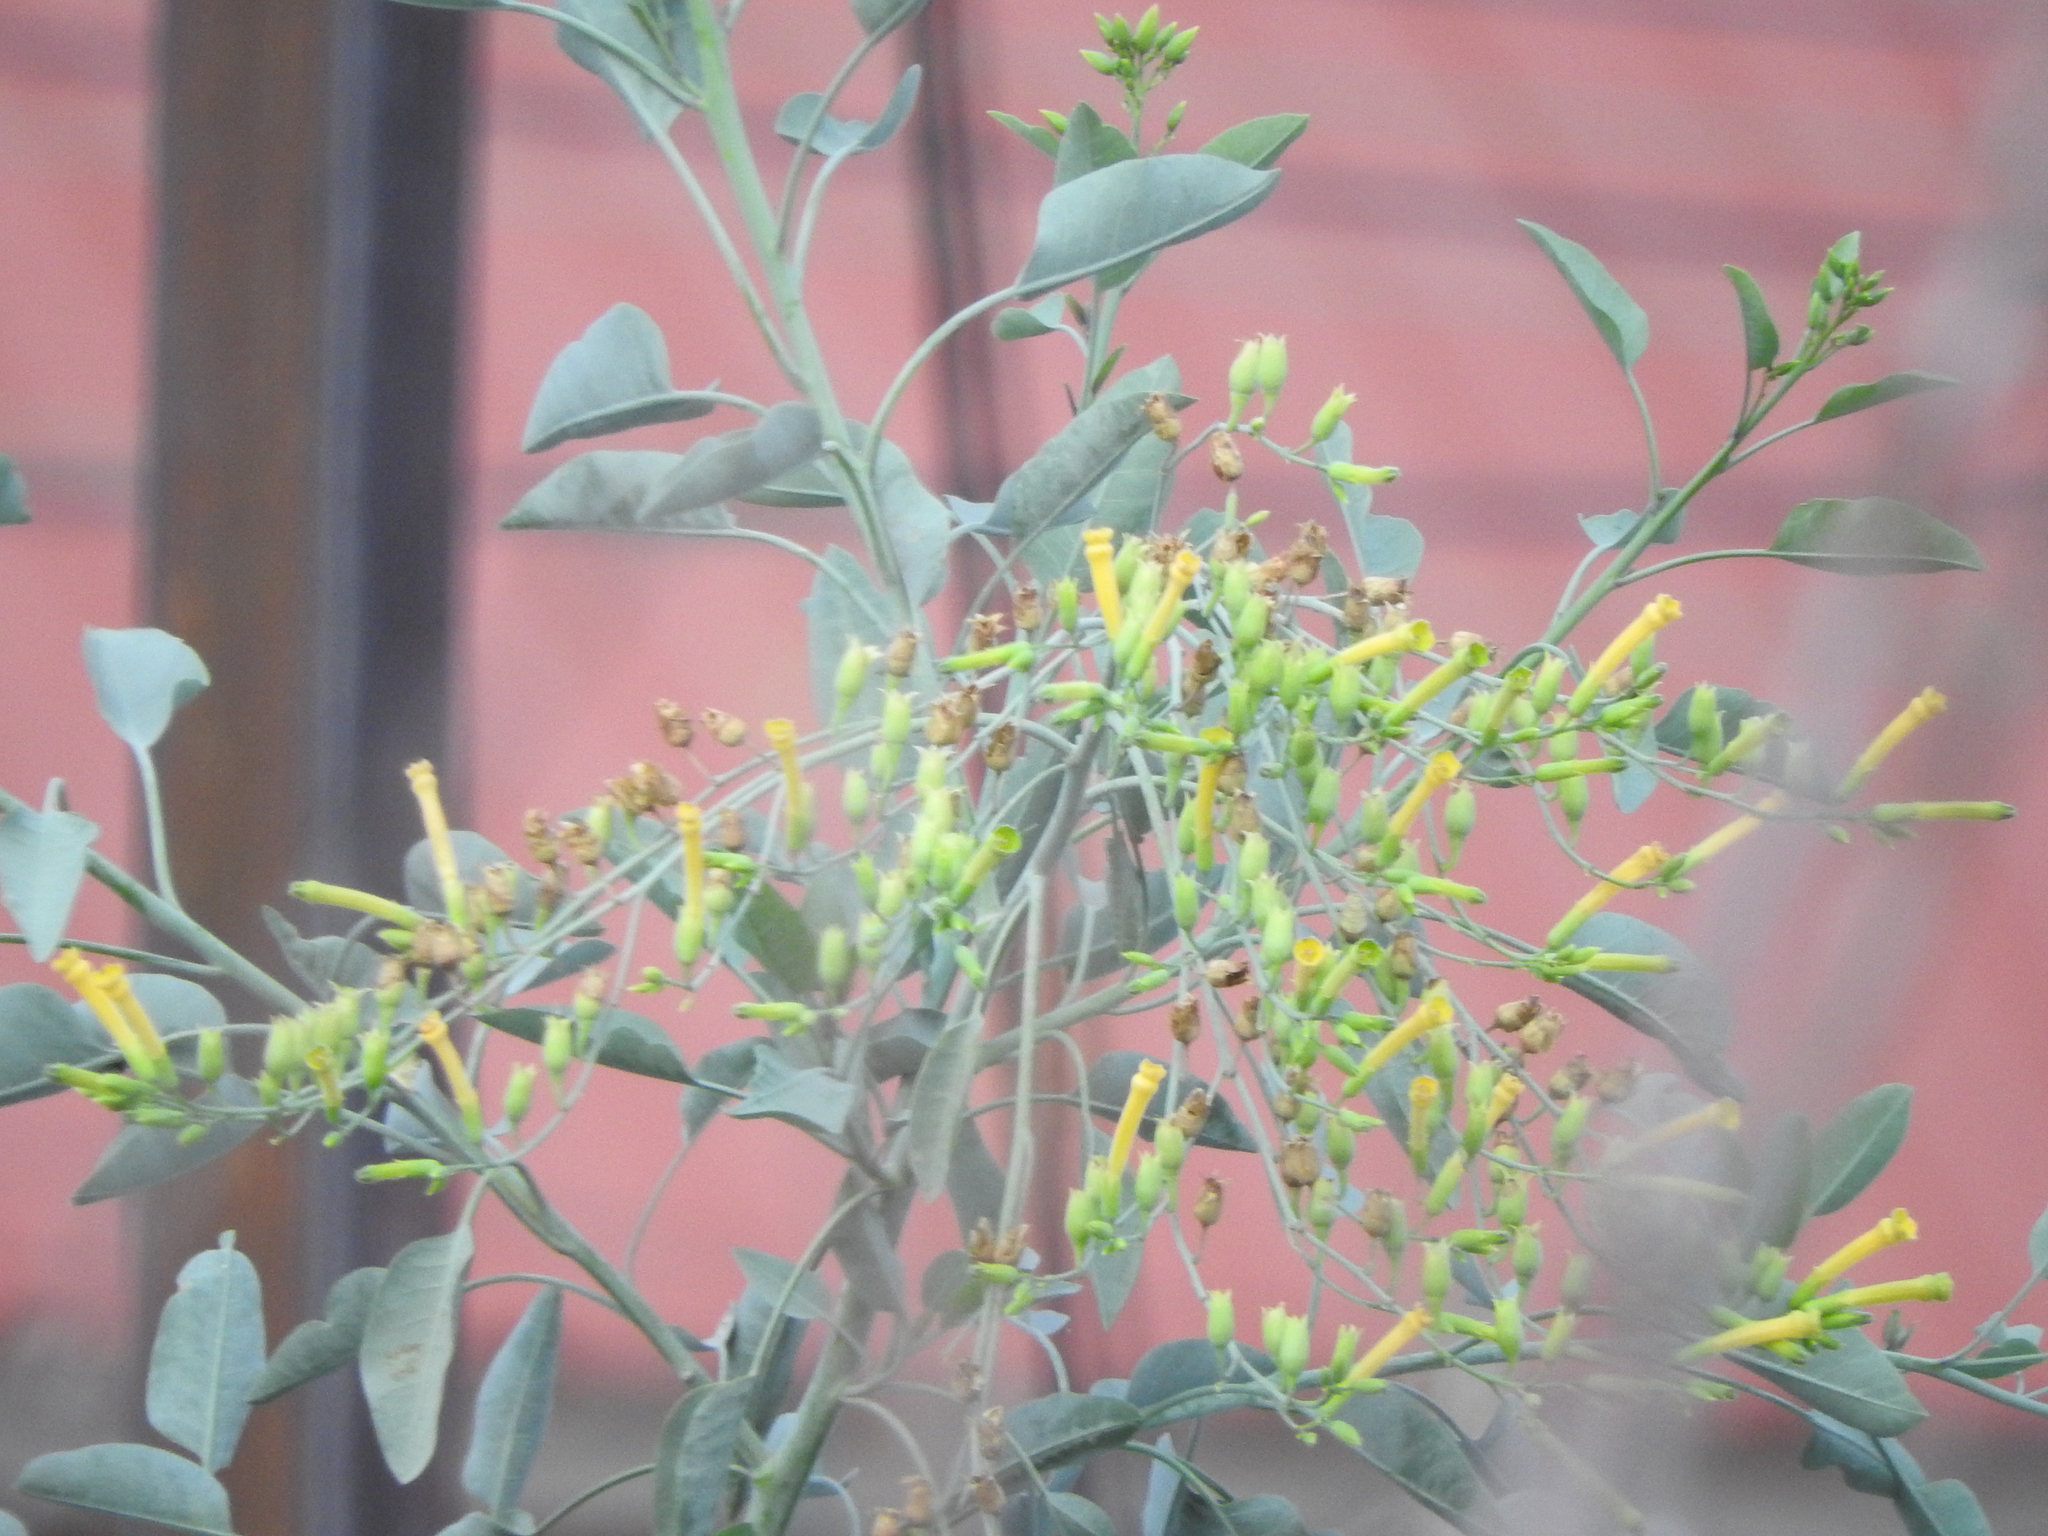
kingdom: Plantae
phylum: Tracheophyta
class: Magnoliopsida
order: Solanales
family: Solanaceae
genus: Nicotiana
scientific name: Nicotiana glauca
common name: Tree tobacco
